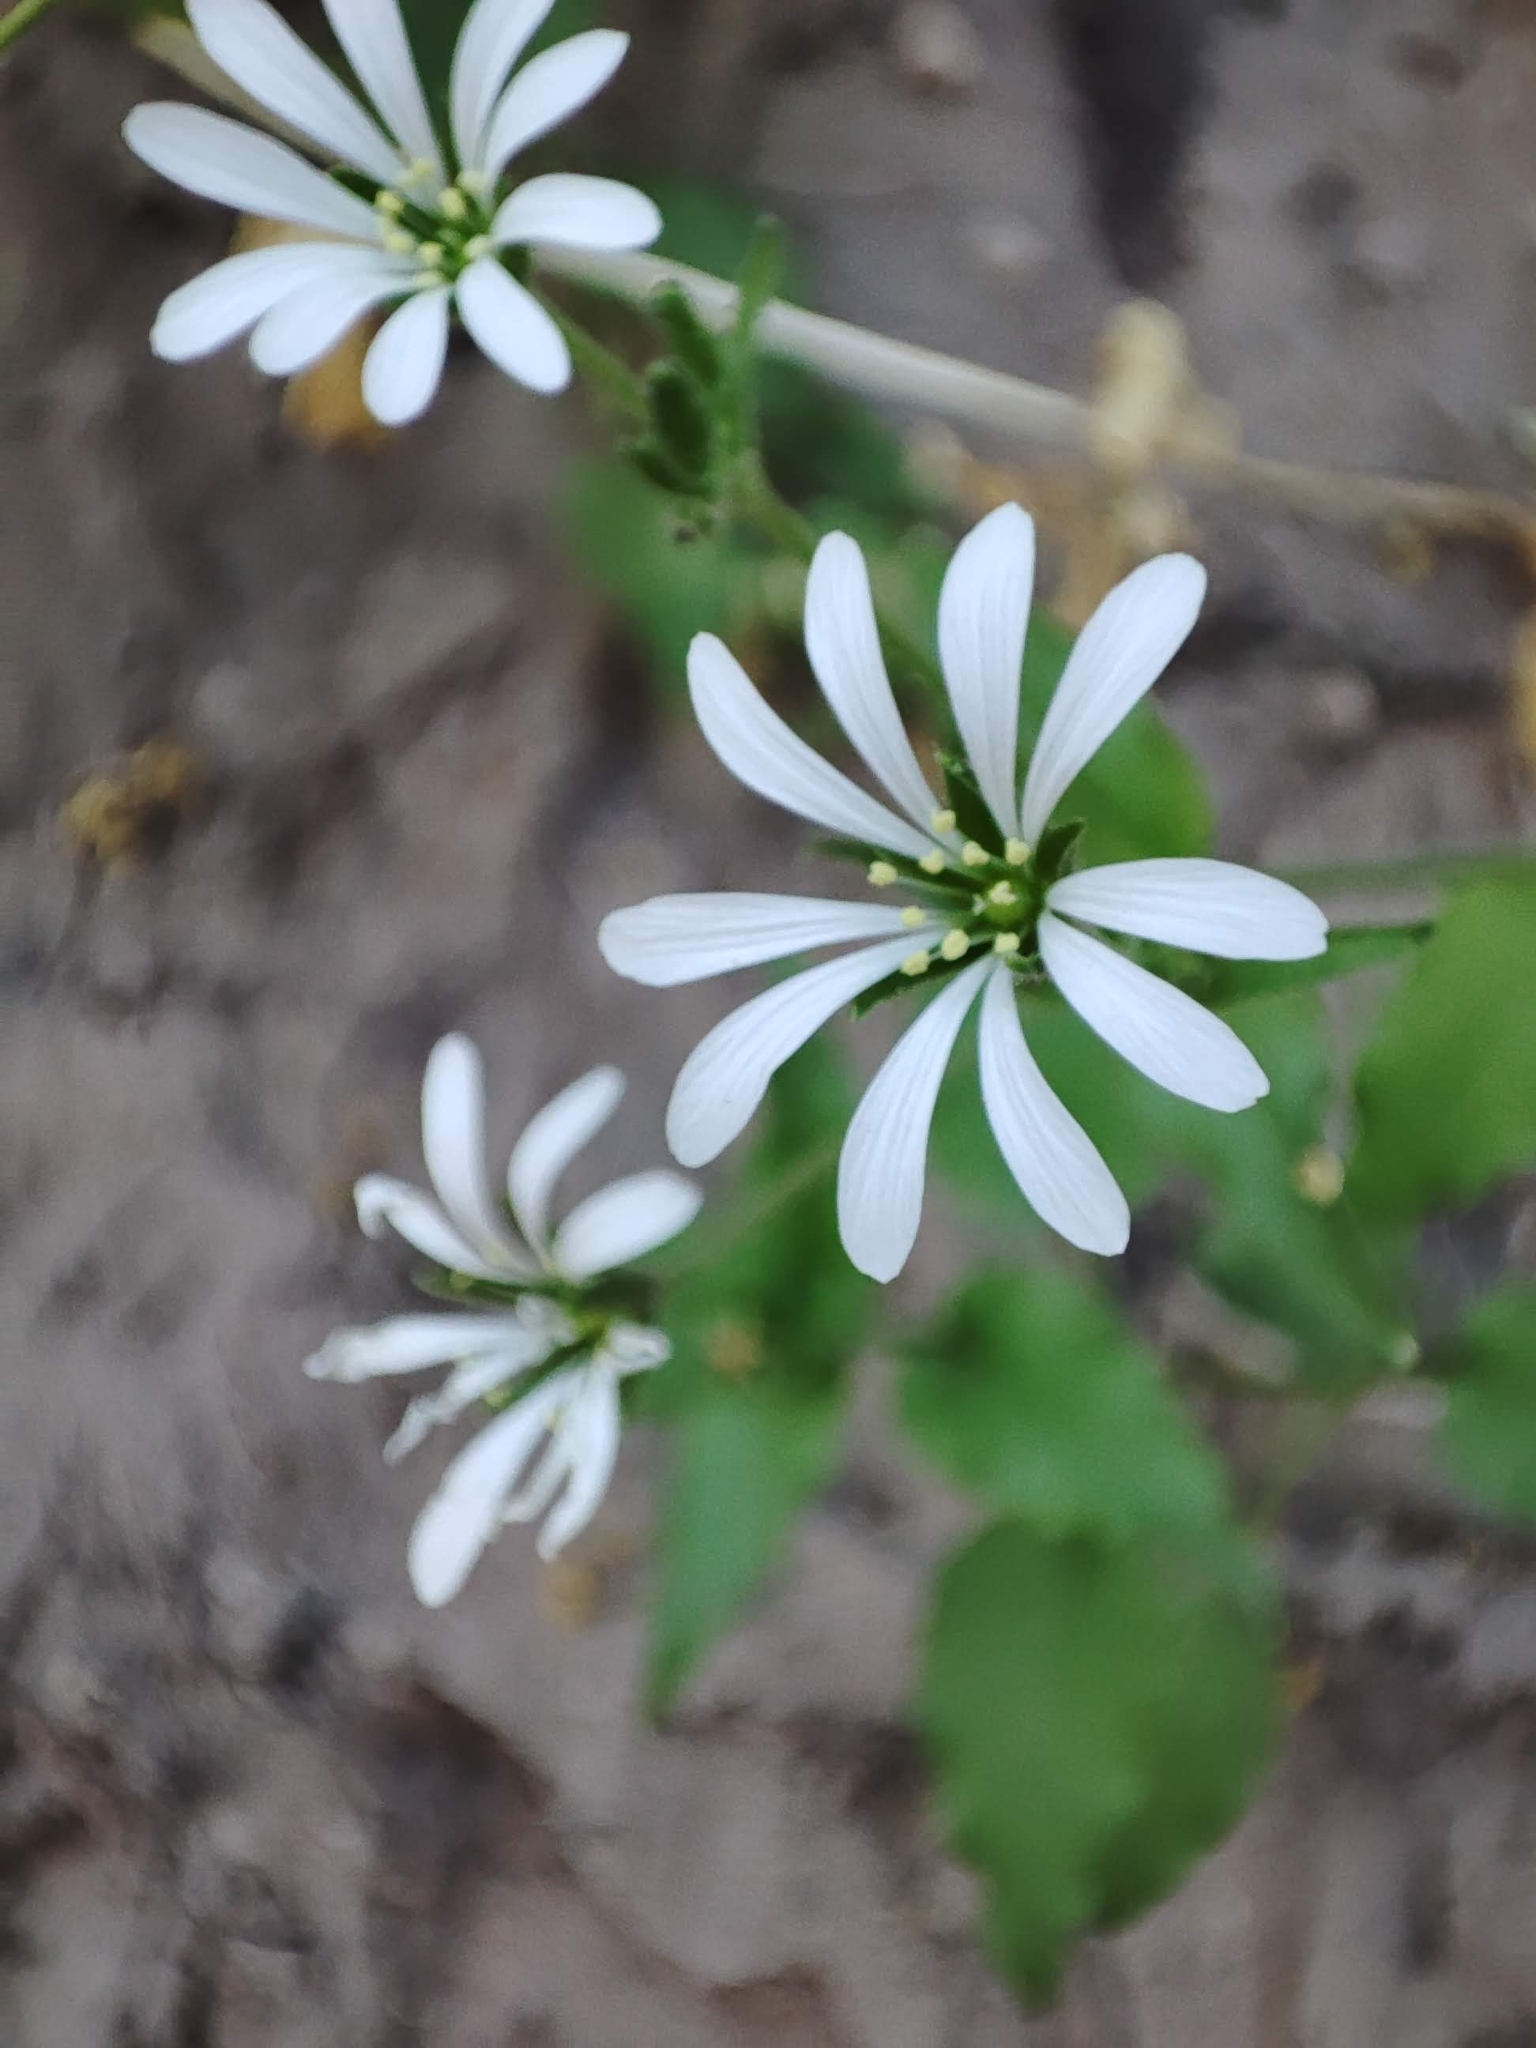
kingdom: Plantae
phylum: Tracheophyta
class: Magnoliopsida
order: Caryophyllales
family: Caryophyllaceae
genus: Stellaria
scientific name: Stellaria chilensis
